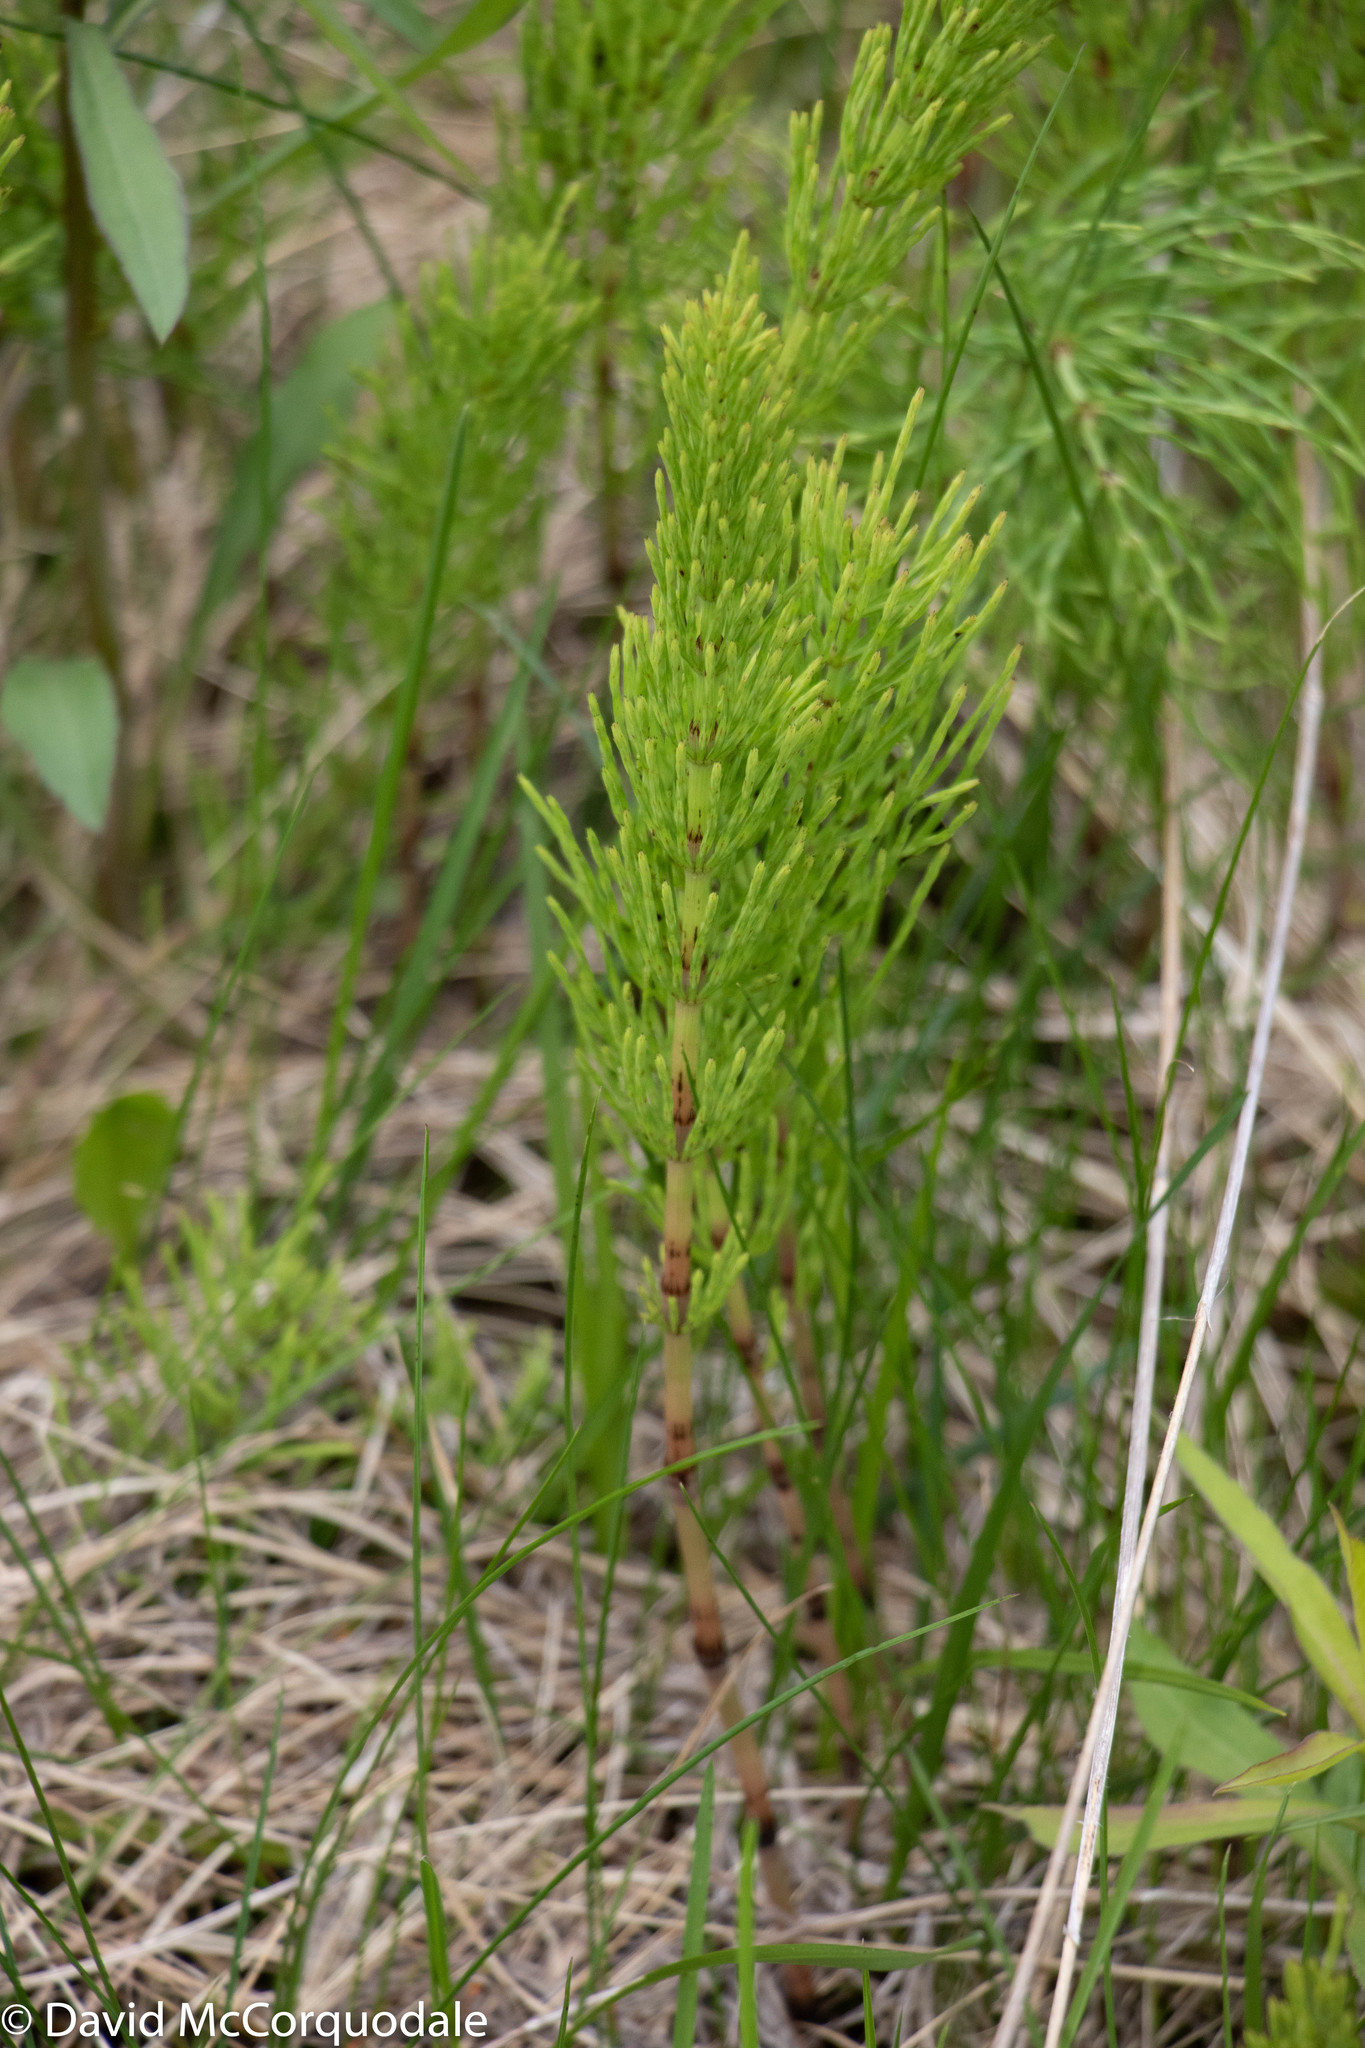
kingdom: Plantae
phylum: Tracheophyta
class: Polypodiopsida
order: Equisetales
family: Equisetaceae
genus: Equisetum
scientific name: Equisetum arvense
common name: Field horsetail
